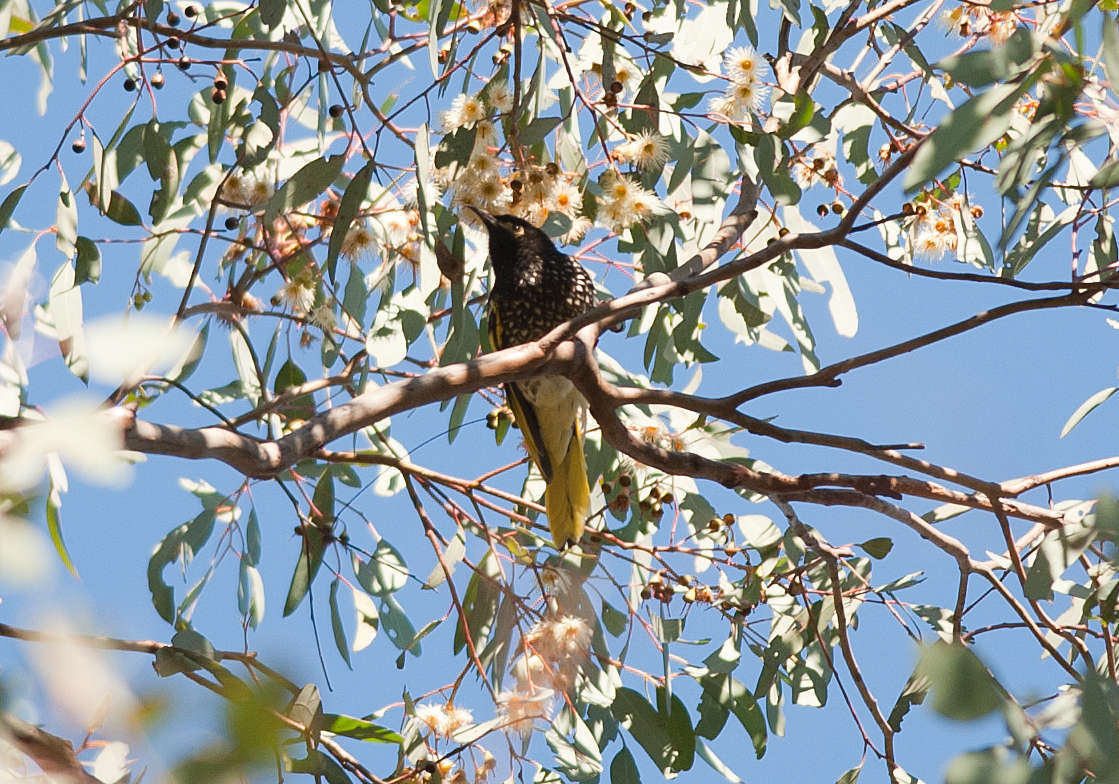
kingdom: Animalia
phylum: Chordata
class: Aves
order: Passeriformes
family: Meliphagidae
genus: Anthochaera
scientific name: Anthochaera phrygia
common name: Regent honeyeater
